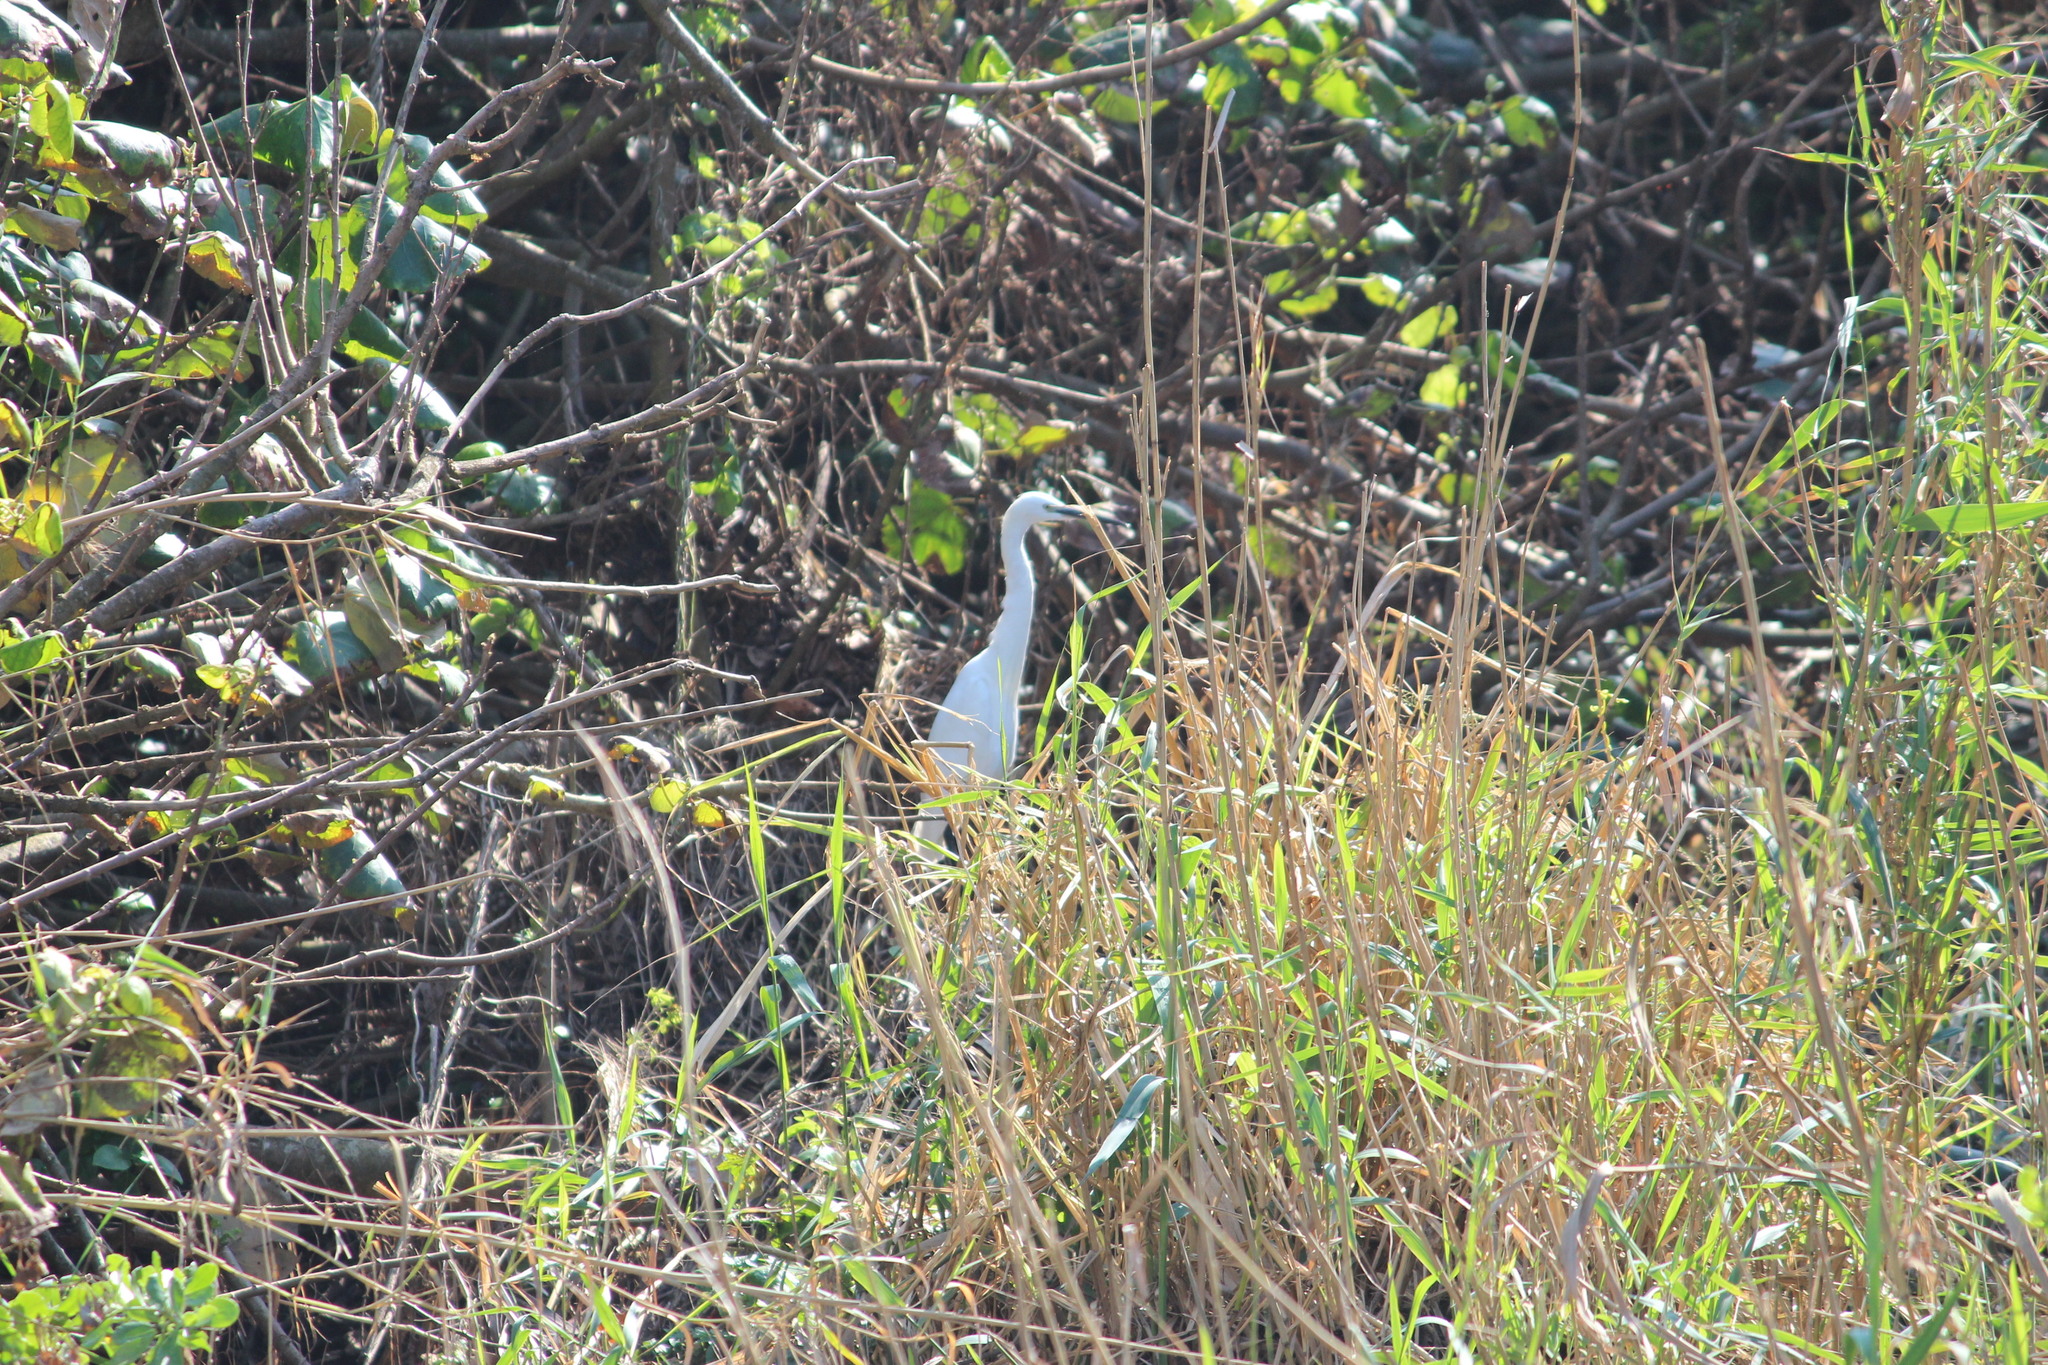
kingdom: Animalia
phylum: Chordata
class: Aves
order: Pelecaniformes
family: Ardeidae
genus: Egretta
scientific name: Egretta garzetta
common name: Little egret
